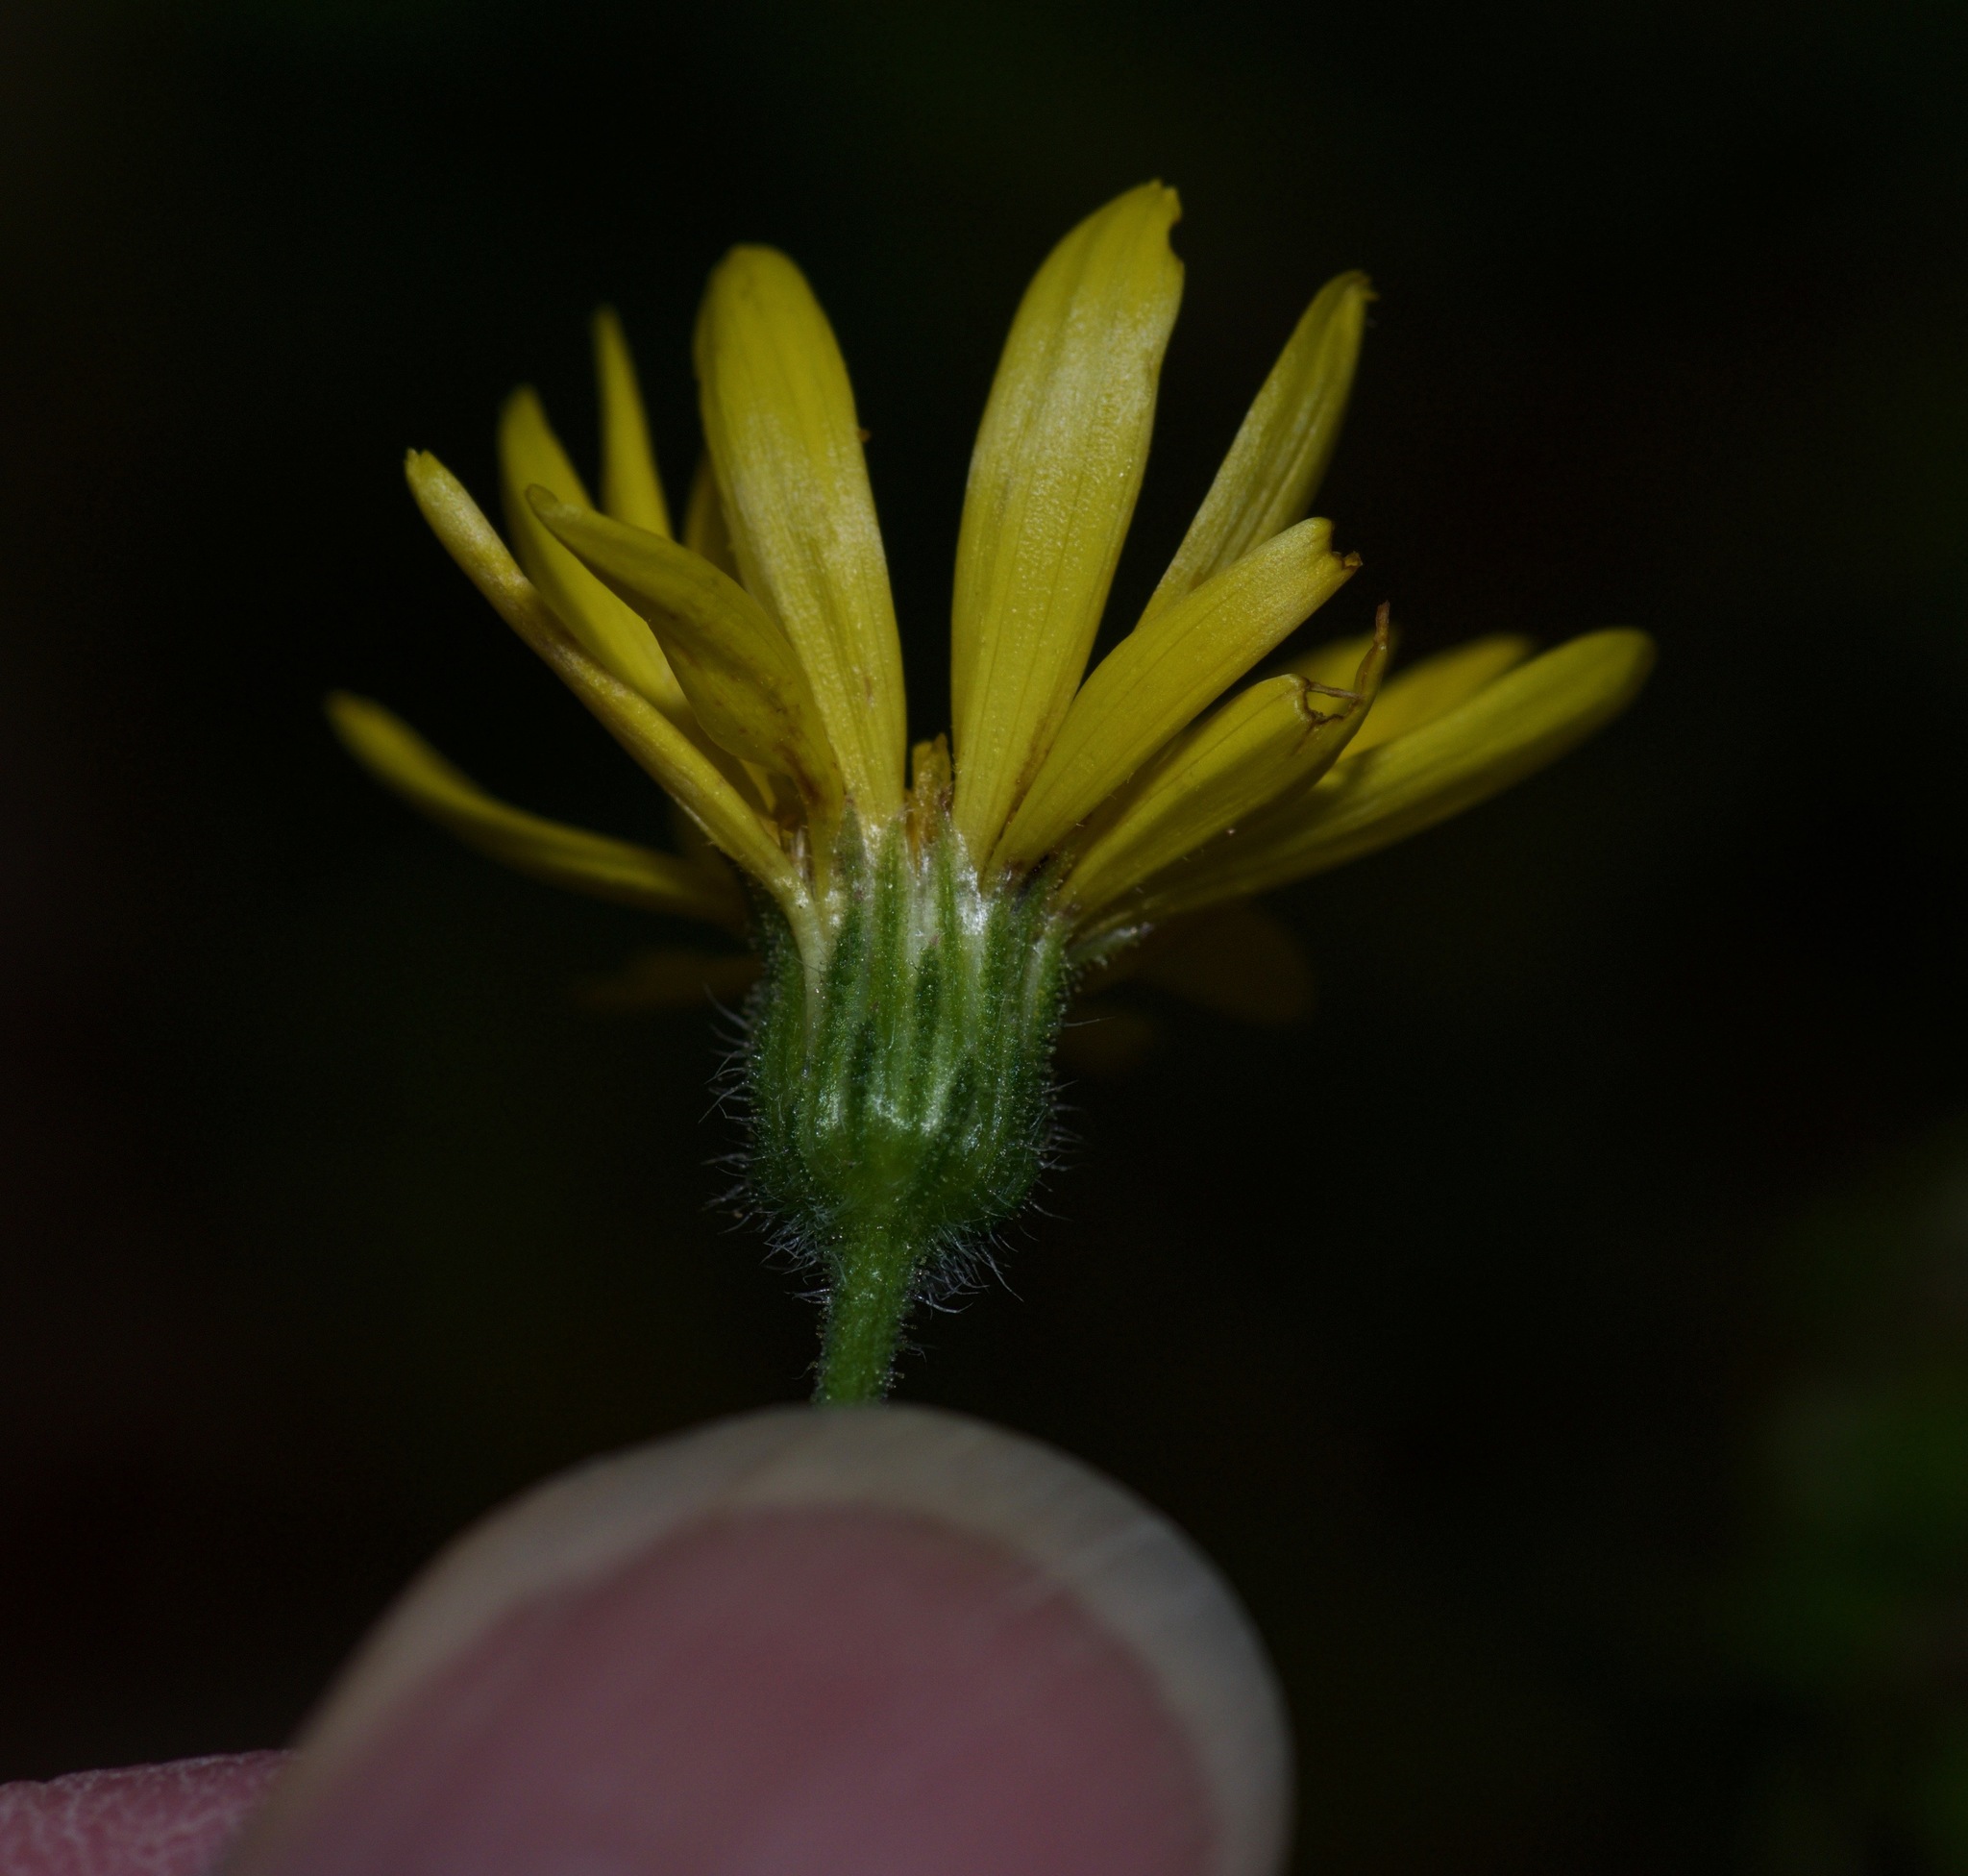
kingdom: Plantae
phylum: Tracheophyta
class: Magnoliopsida
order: Asterales
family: Asteraceae
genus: Heterotheca
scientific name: Heterotheca subaxillaris
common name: Camphorweed
